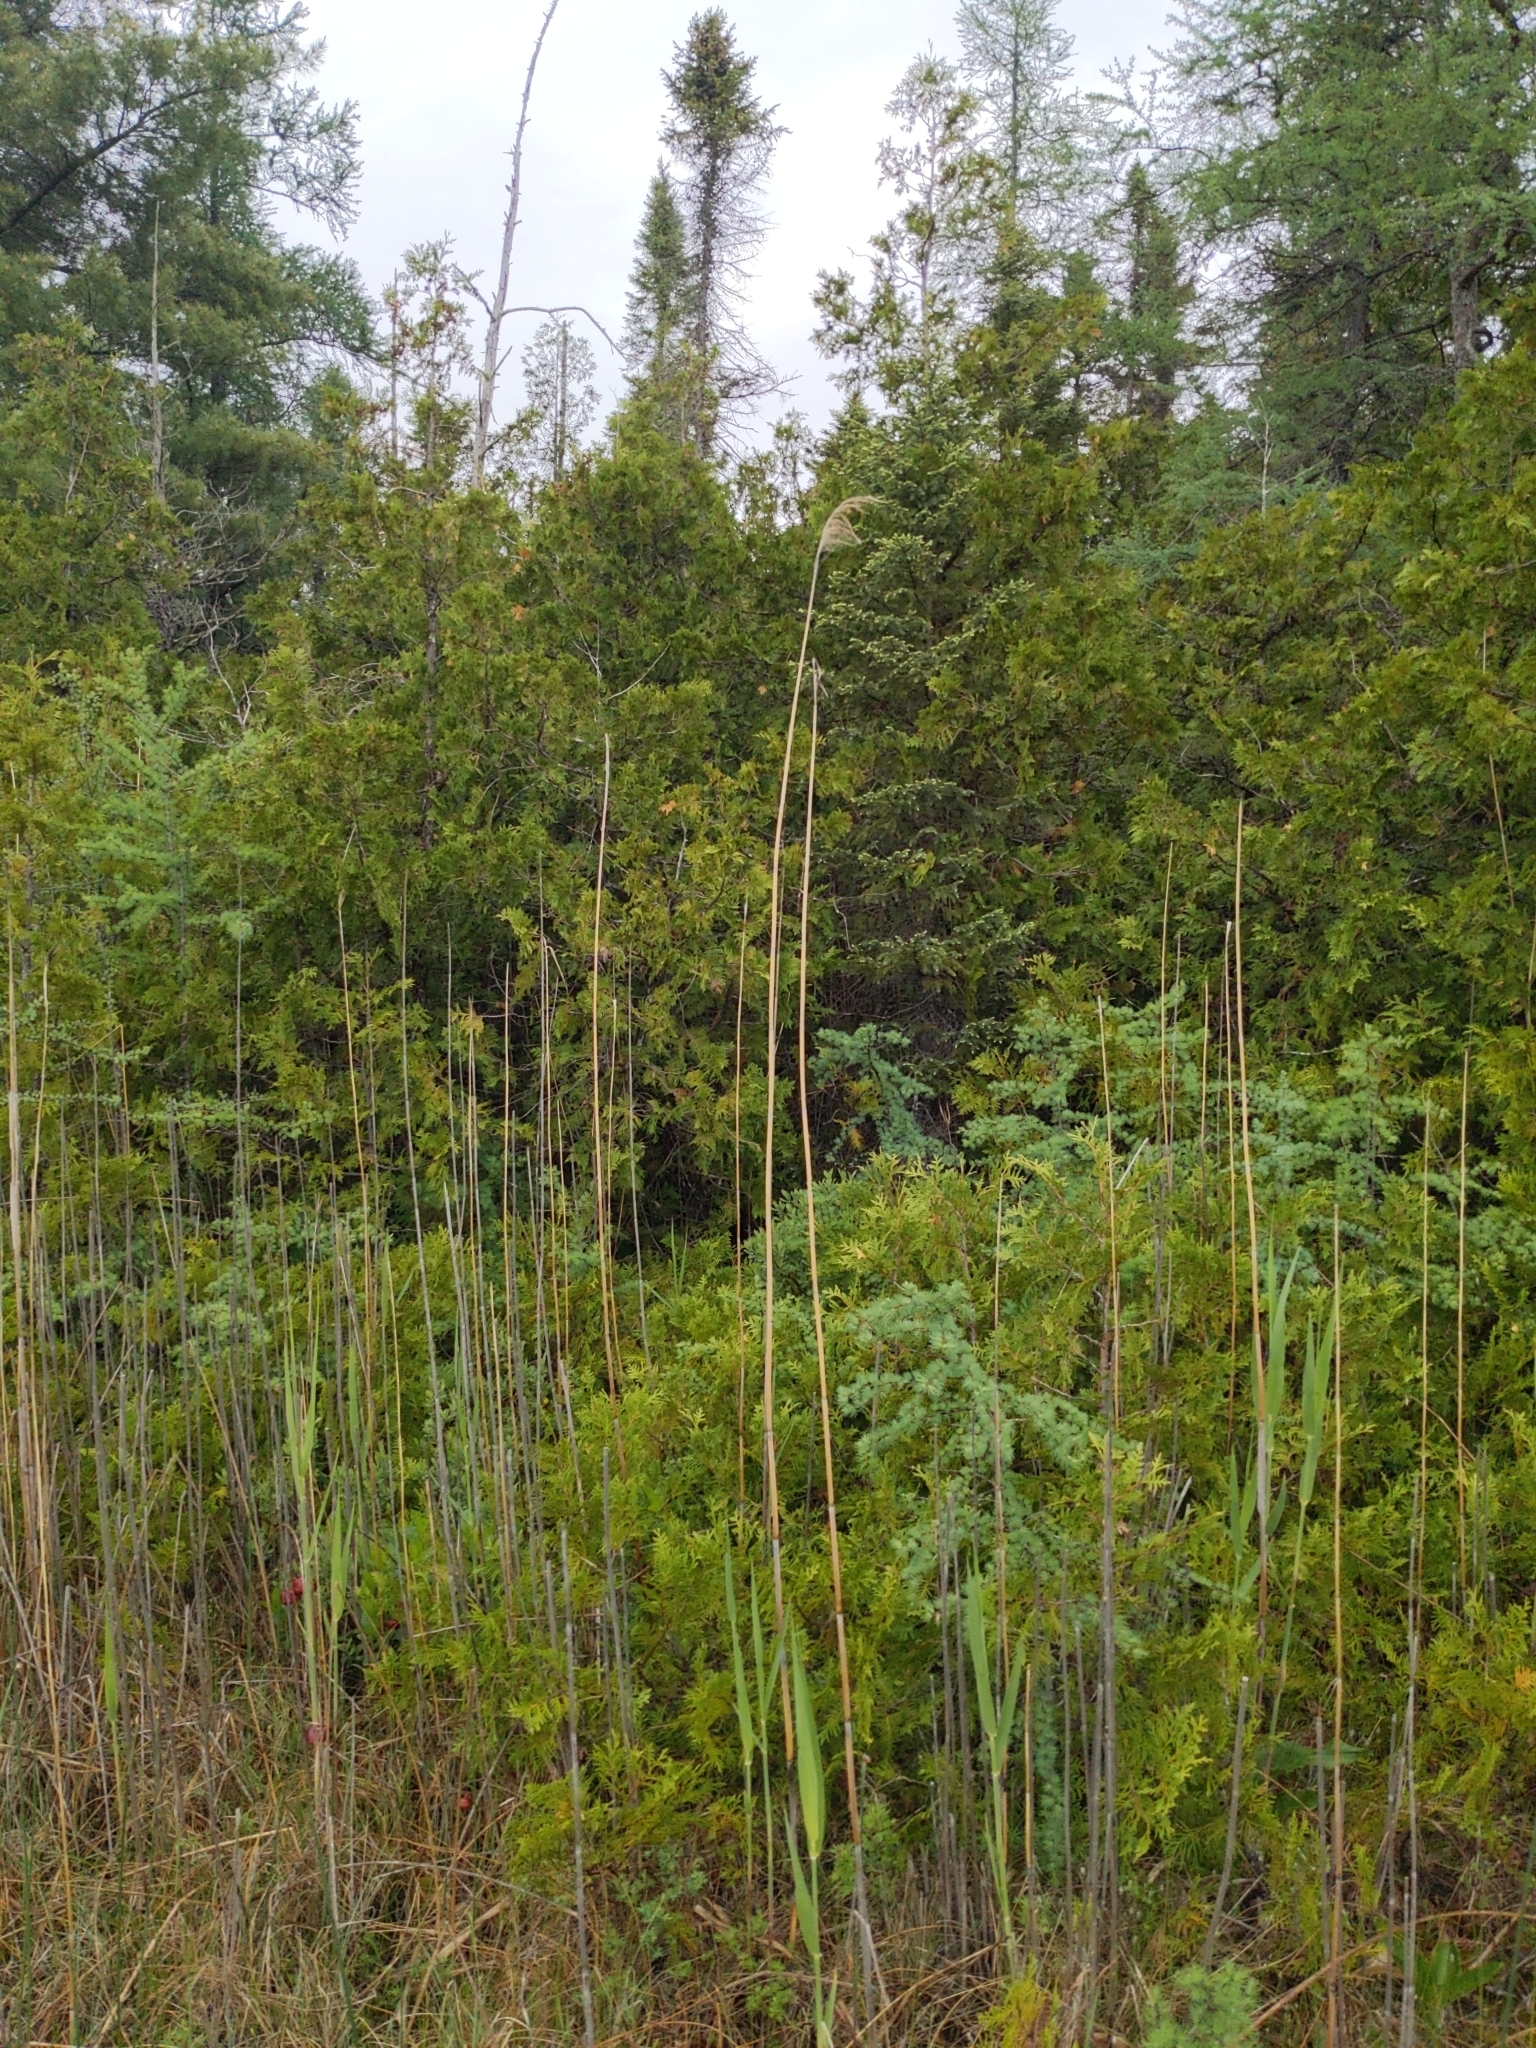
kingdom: Plantae
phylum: Tracheophyta
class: Liliopsida
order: Poales
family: Poaceae
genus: Phragmites
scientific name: Phragmites australis
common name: Common reed
